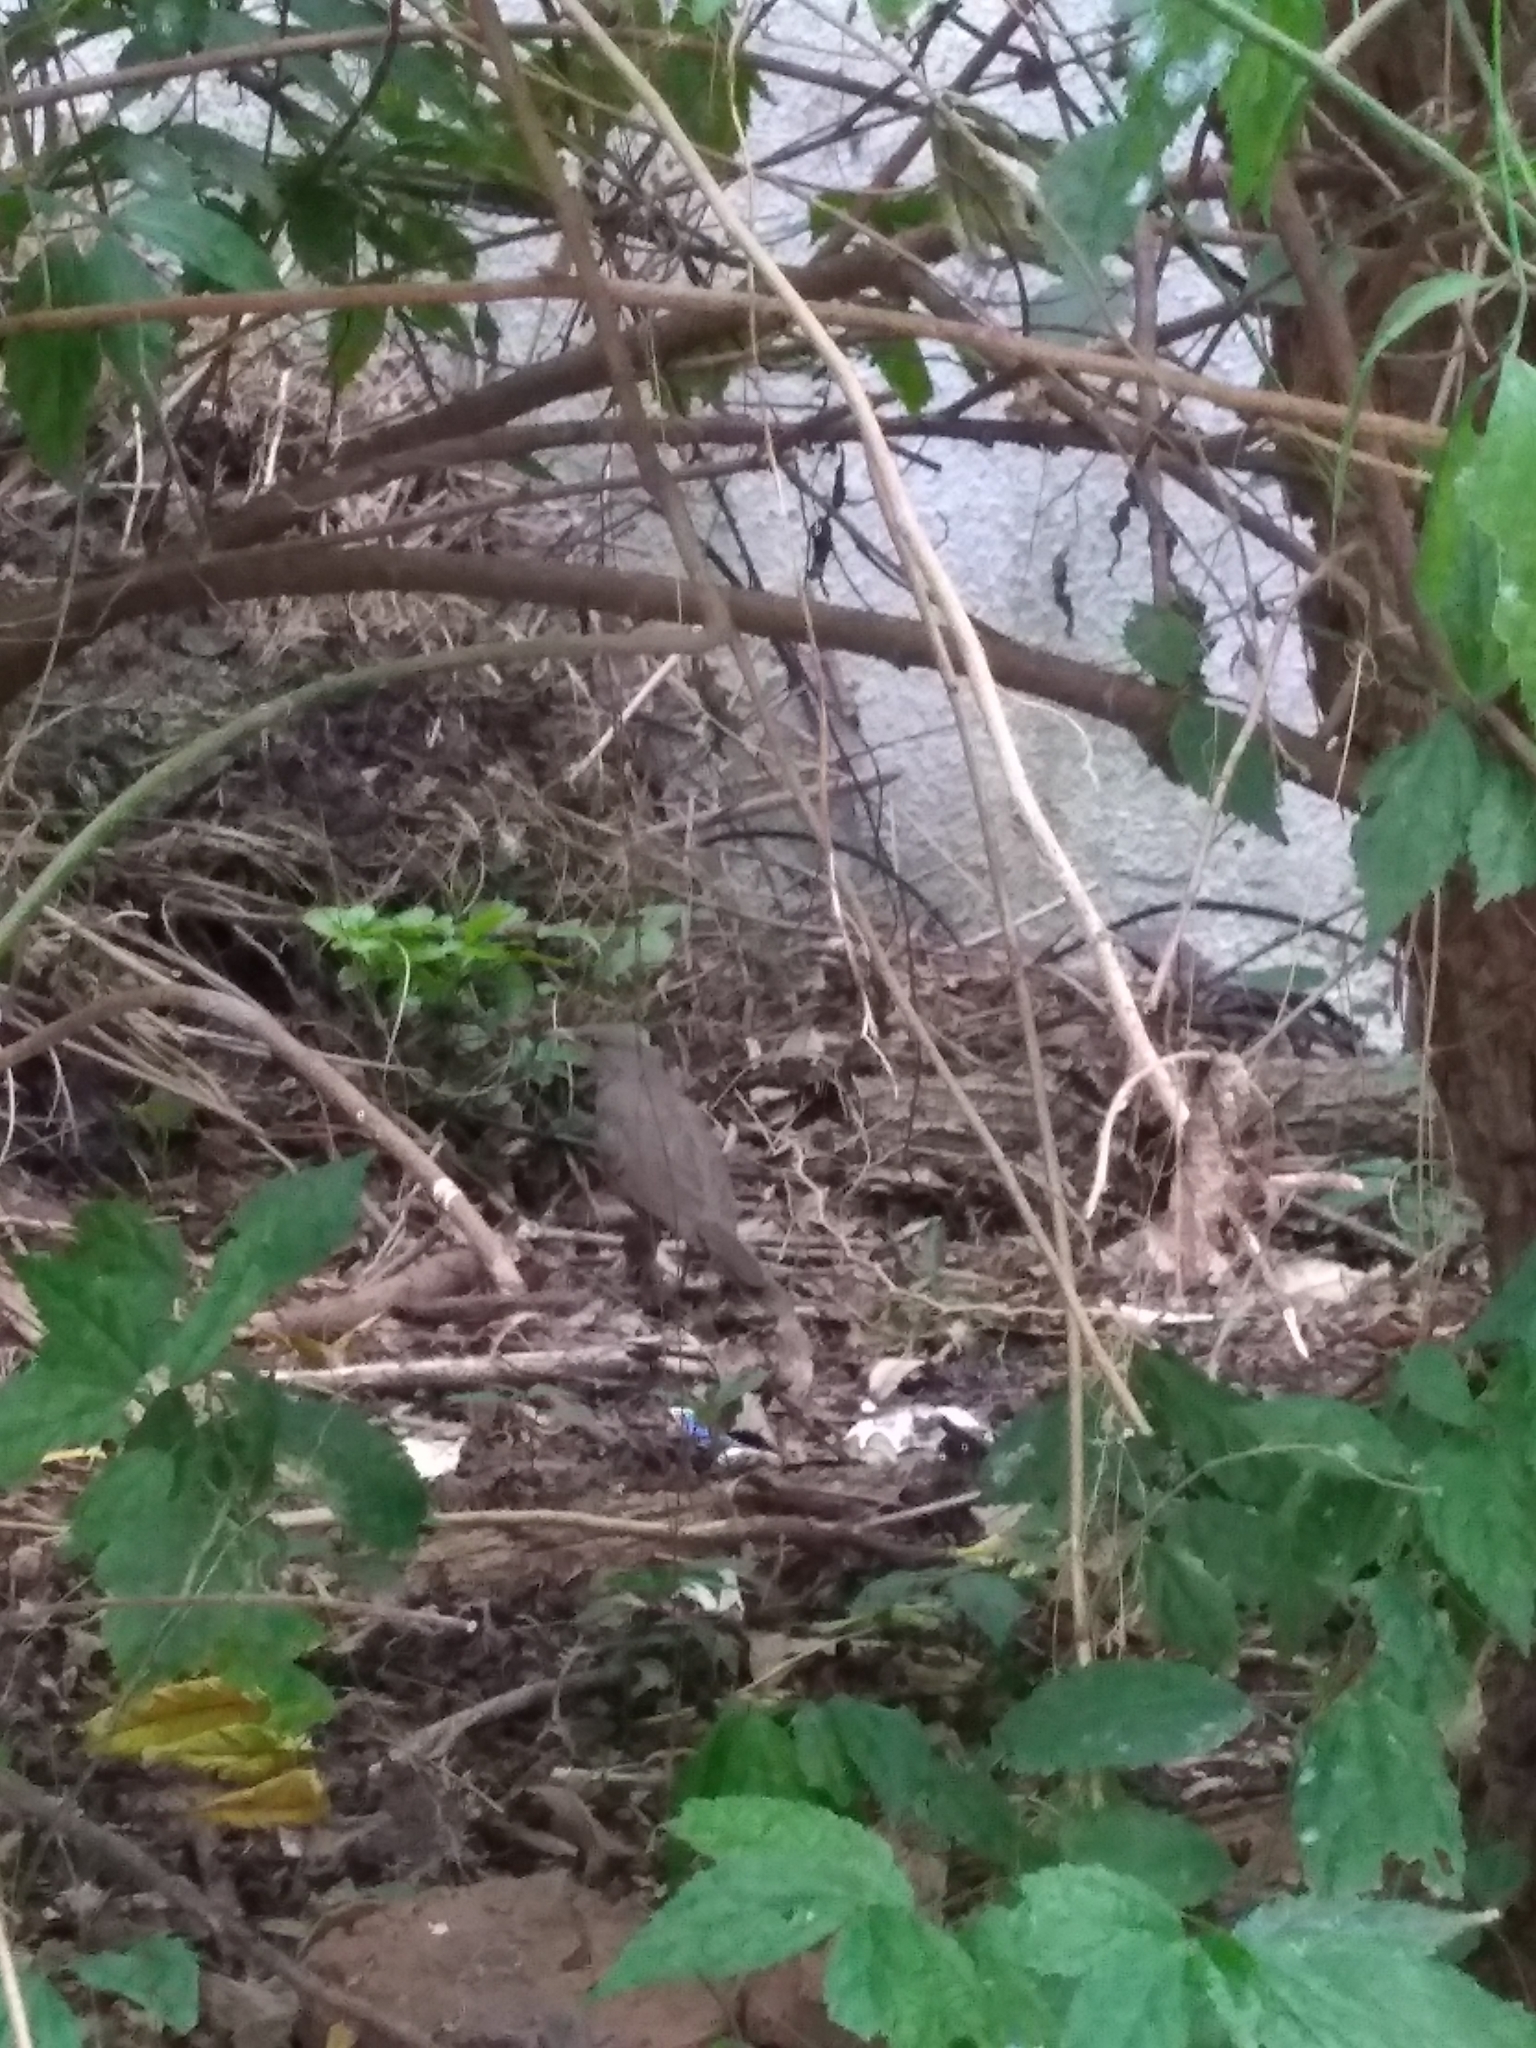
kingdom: Animalia
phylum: Chordata
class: Aves
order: Passeriformes
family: Turdidae
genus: Turdus
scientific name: Turdus rufiventris
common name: Rufous-bellied thrush
